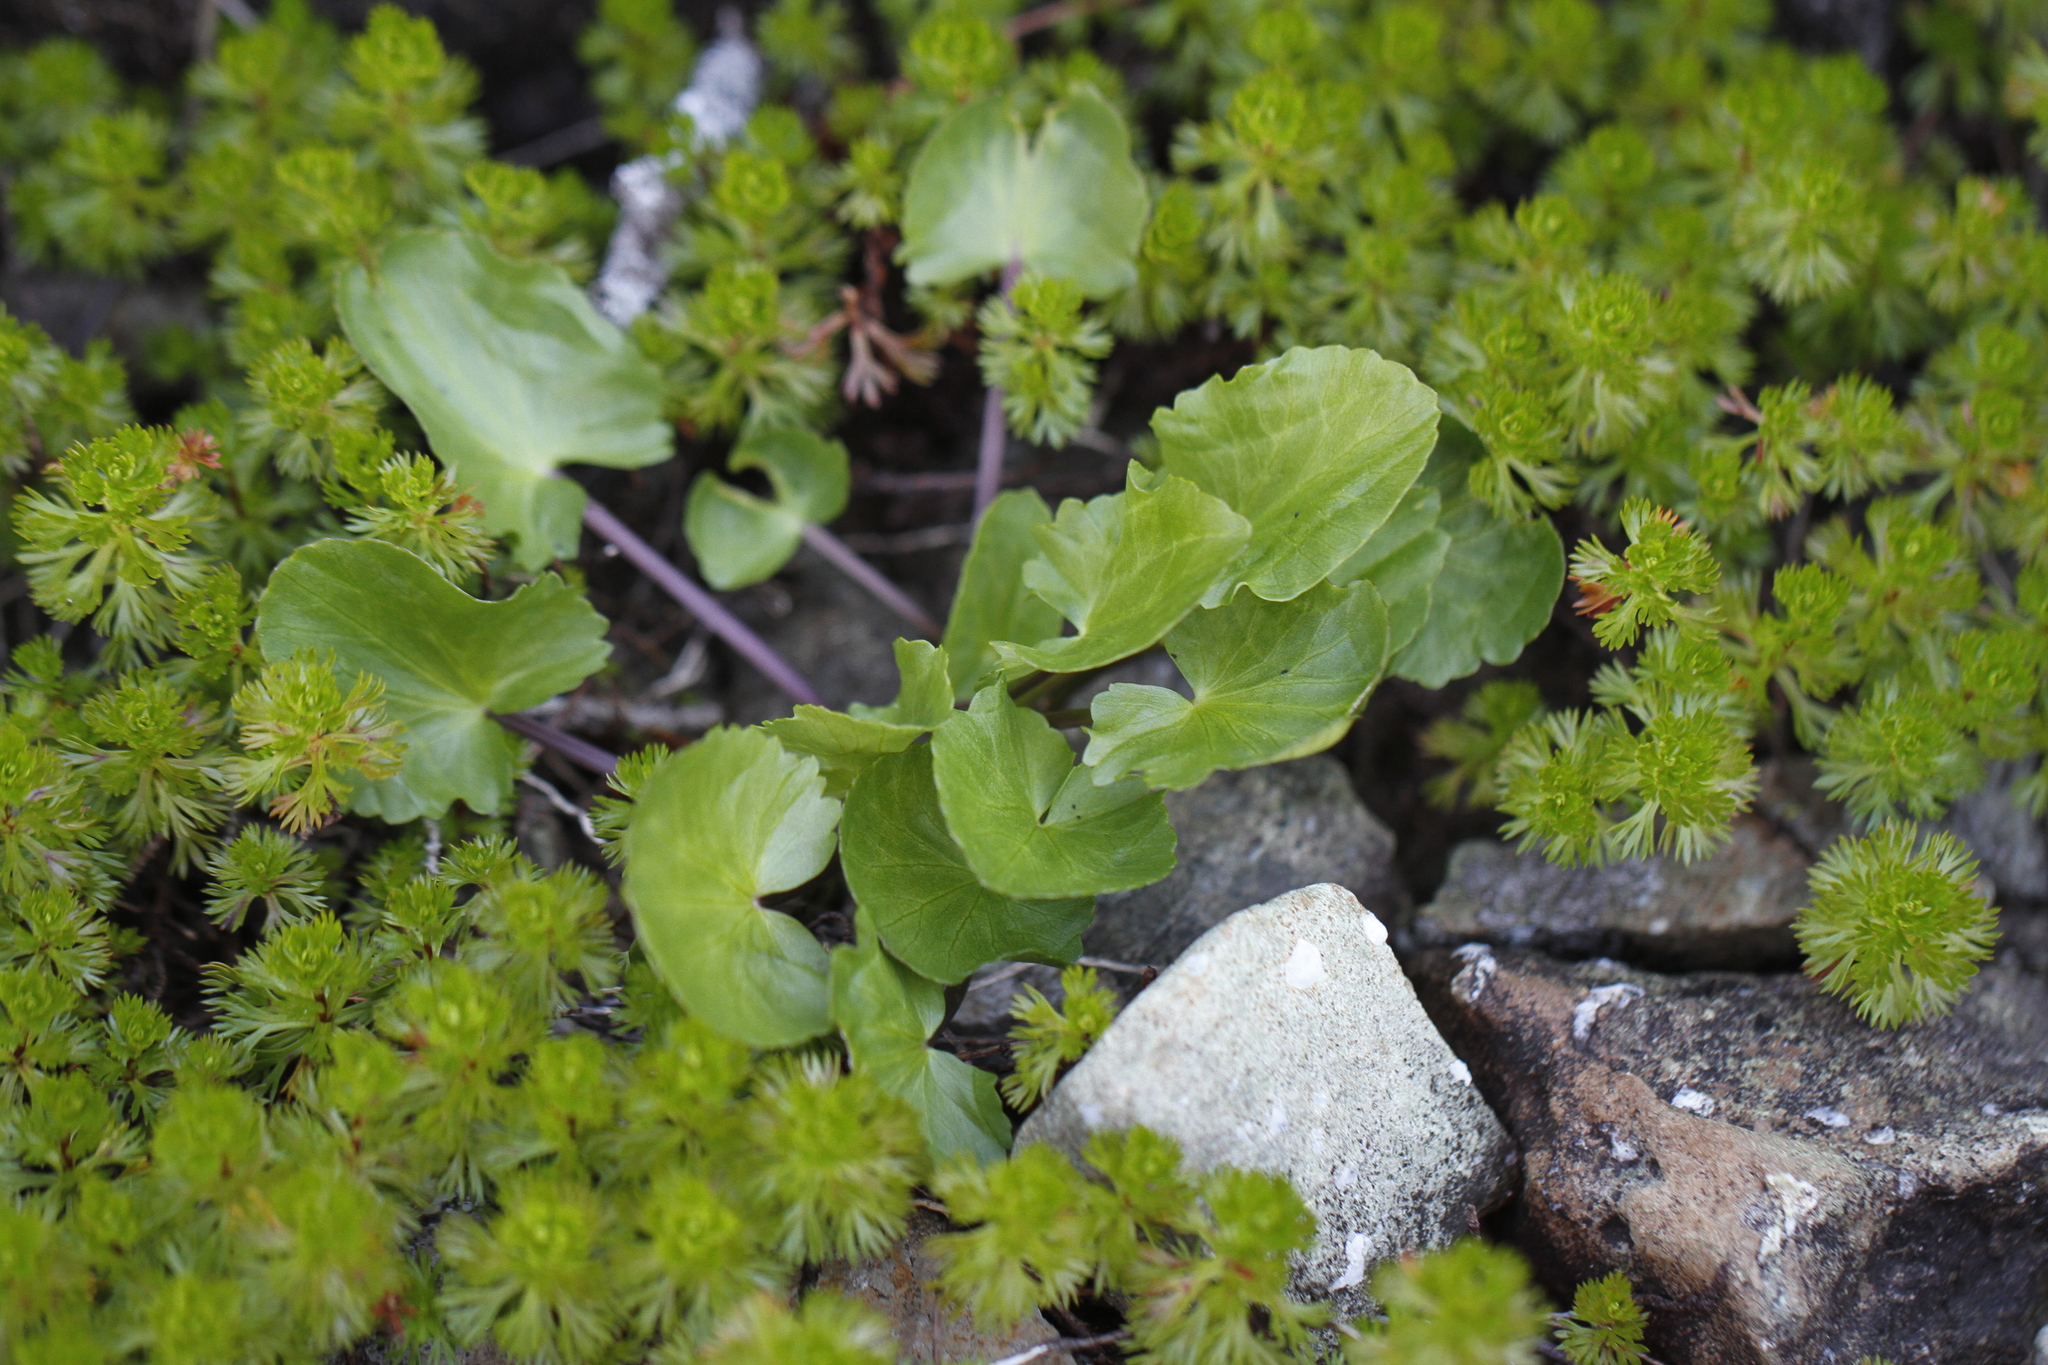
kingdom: Plantae
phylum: Tracheophyta
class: Magnoliopsida
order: Ranunculales
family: Ranunculaceae
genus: Caltha
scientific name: Caltha biflora
